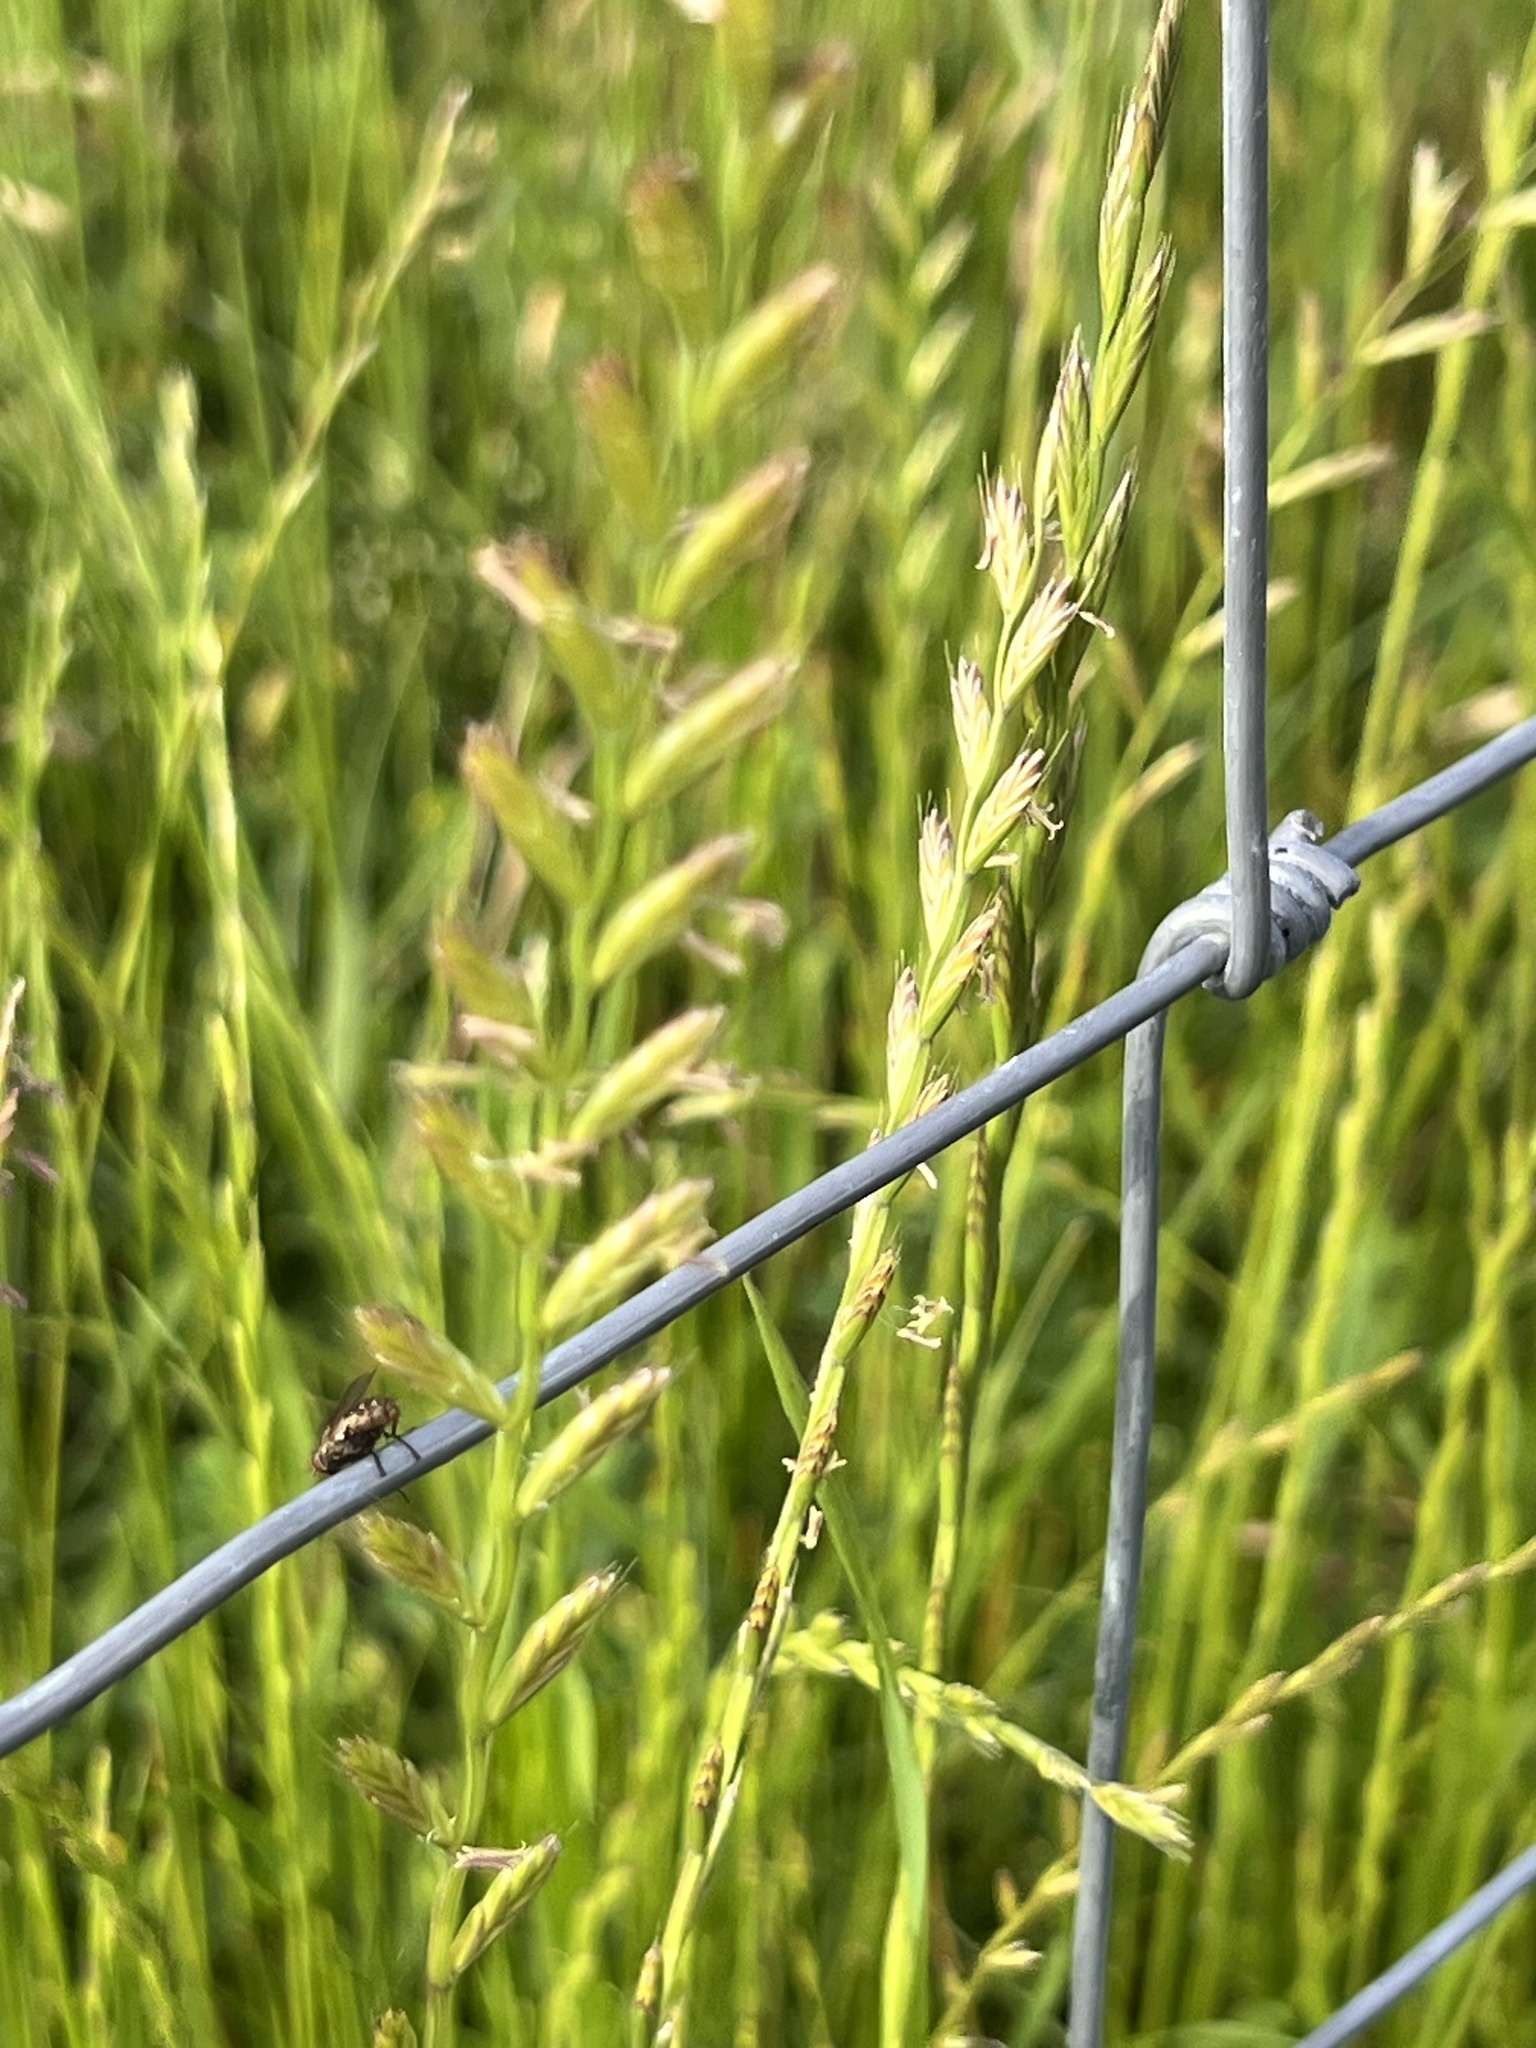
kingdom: Plantae
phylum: Tracheophyta
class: Liliopsida
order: Poales
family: Poaceae
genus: Lolium
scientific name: Lolium perenne
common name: Perennial ryegrass
